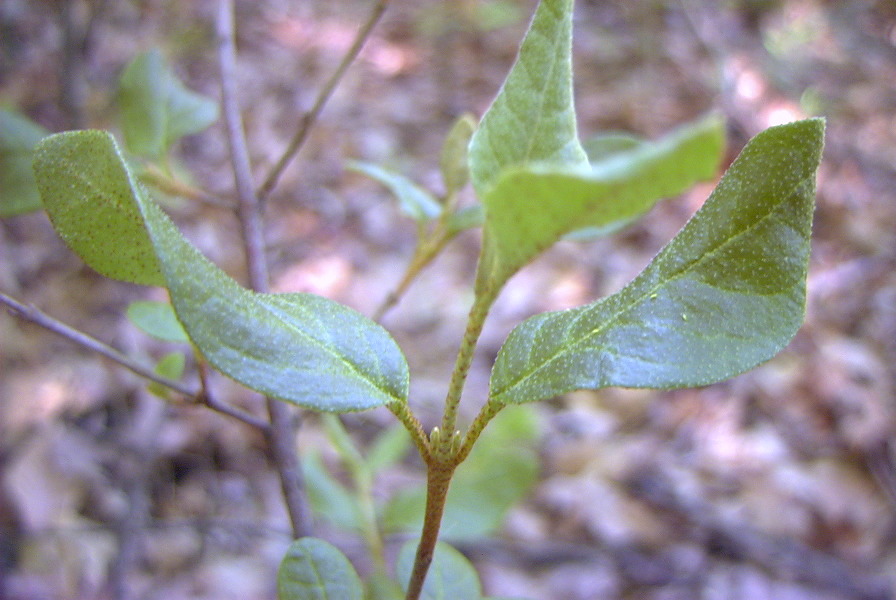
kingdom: Plantae
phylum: Tracheophyta
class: Magnoliopsida
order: Rosales
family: Elaeagnaceae
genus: Shepherdia
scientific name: Shepherdia canadensis
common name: Soapberry
